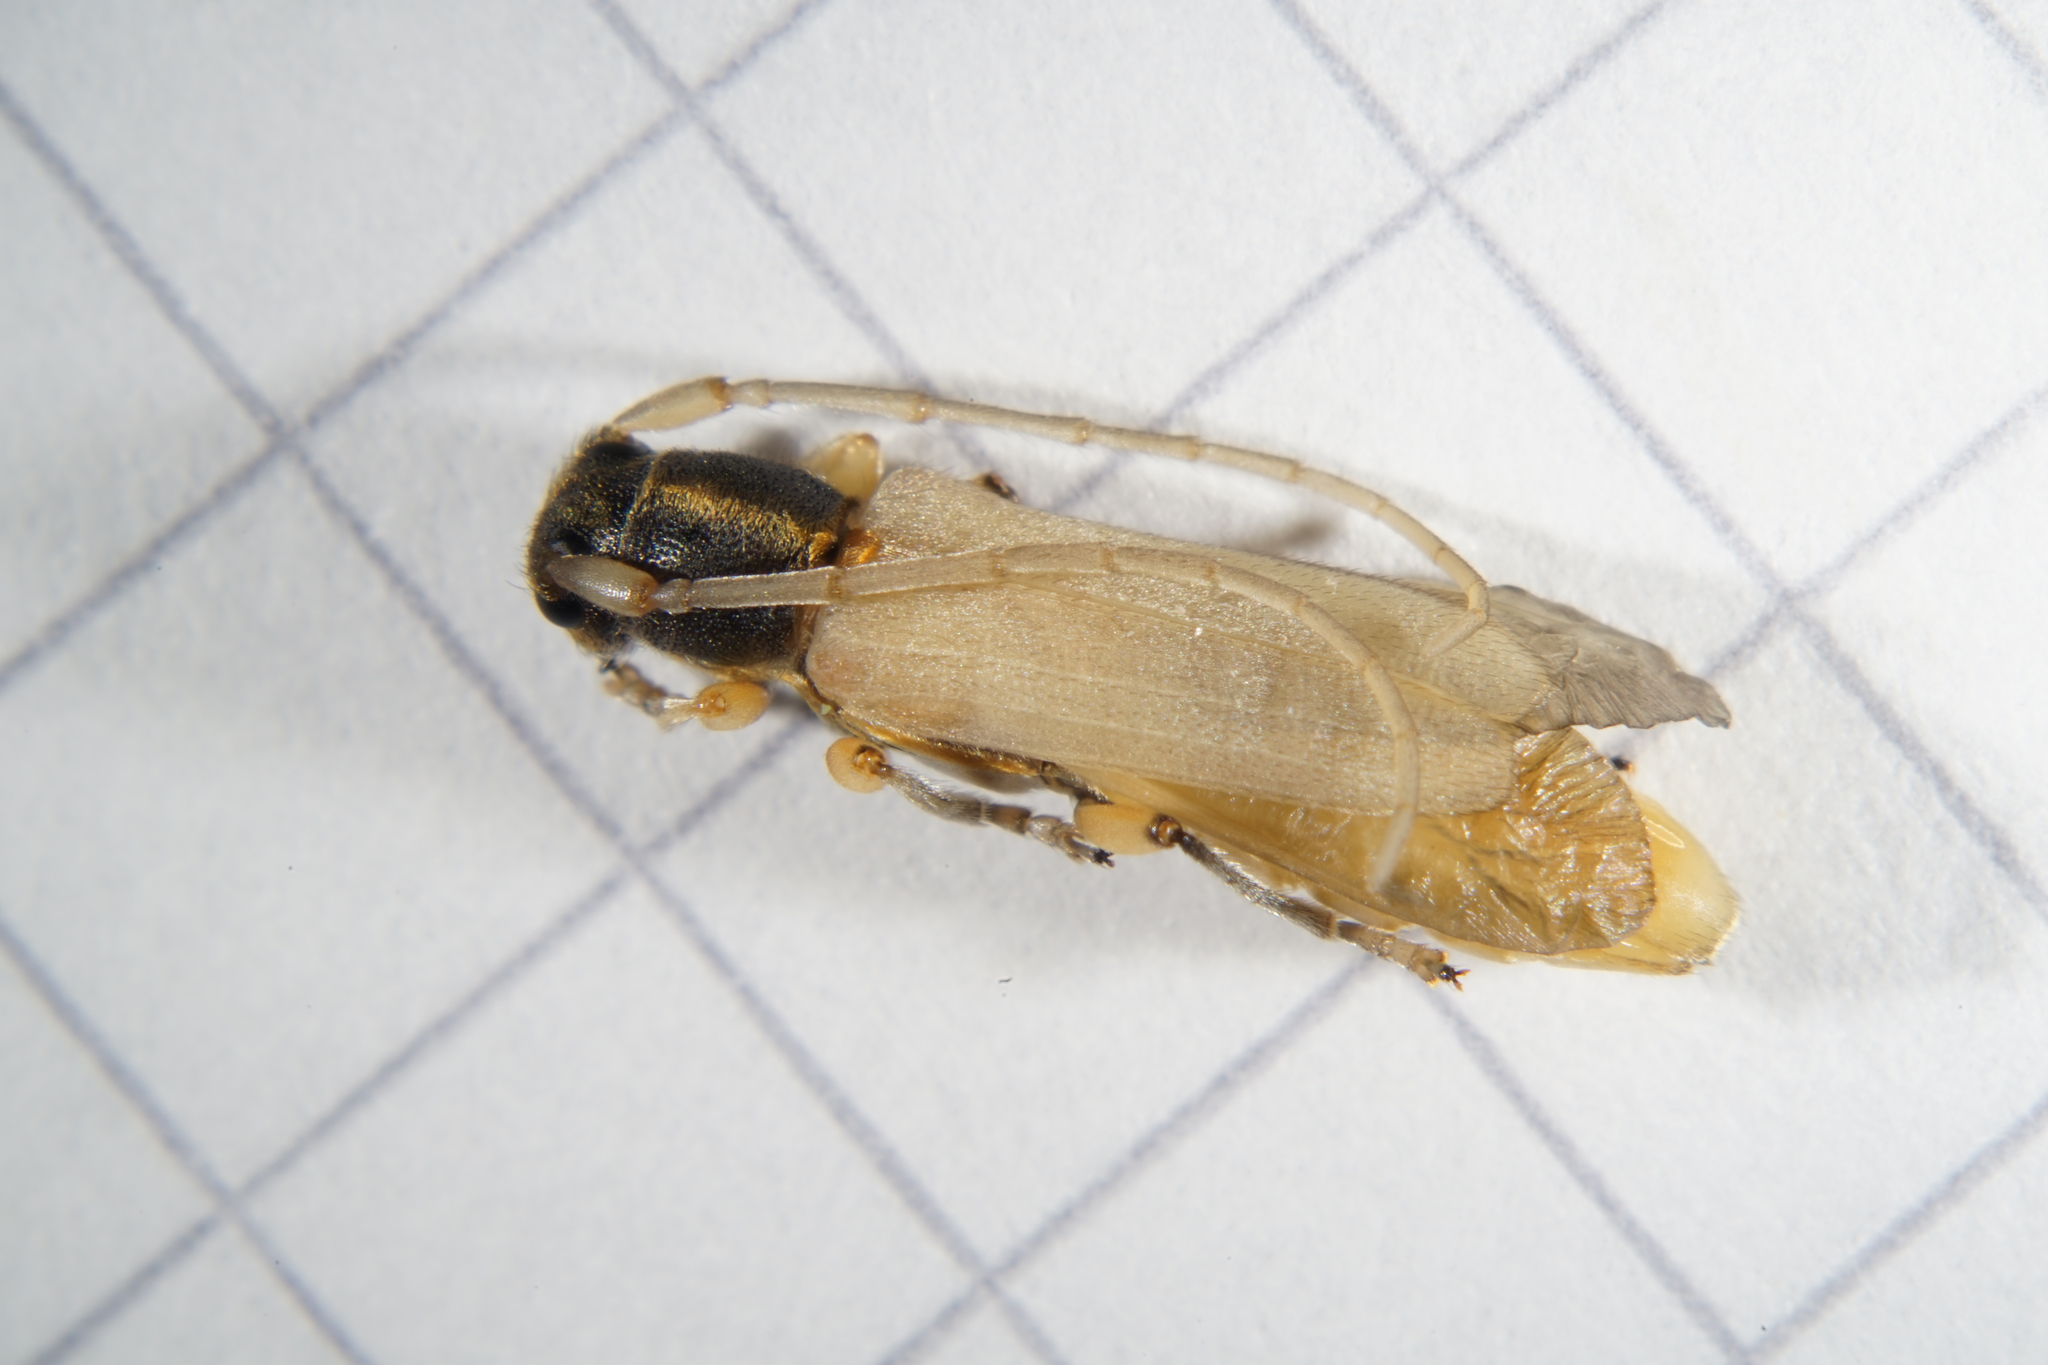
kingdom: Animalia
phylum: Arthropoda
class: Insecta
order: Coleoptera
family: Cerambycidae
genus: Phytoecia
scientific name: Phytoecia icterica
